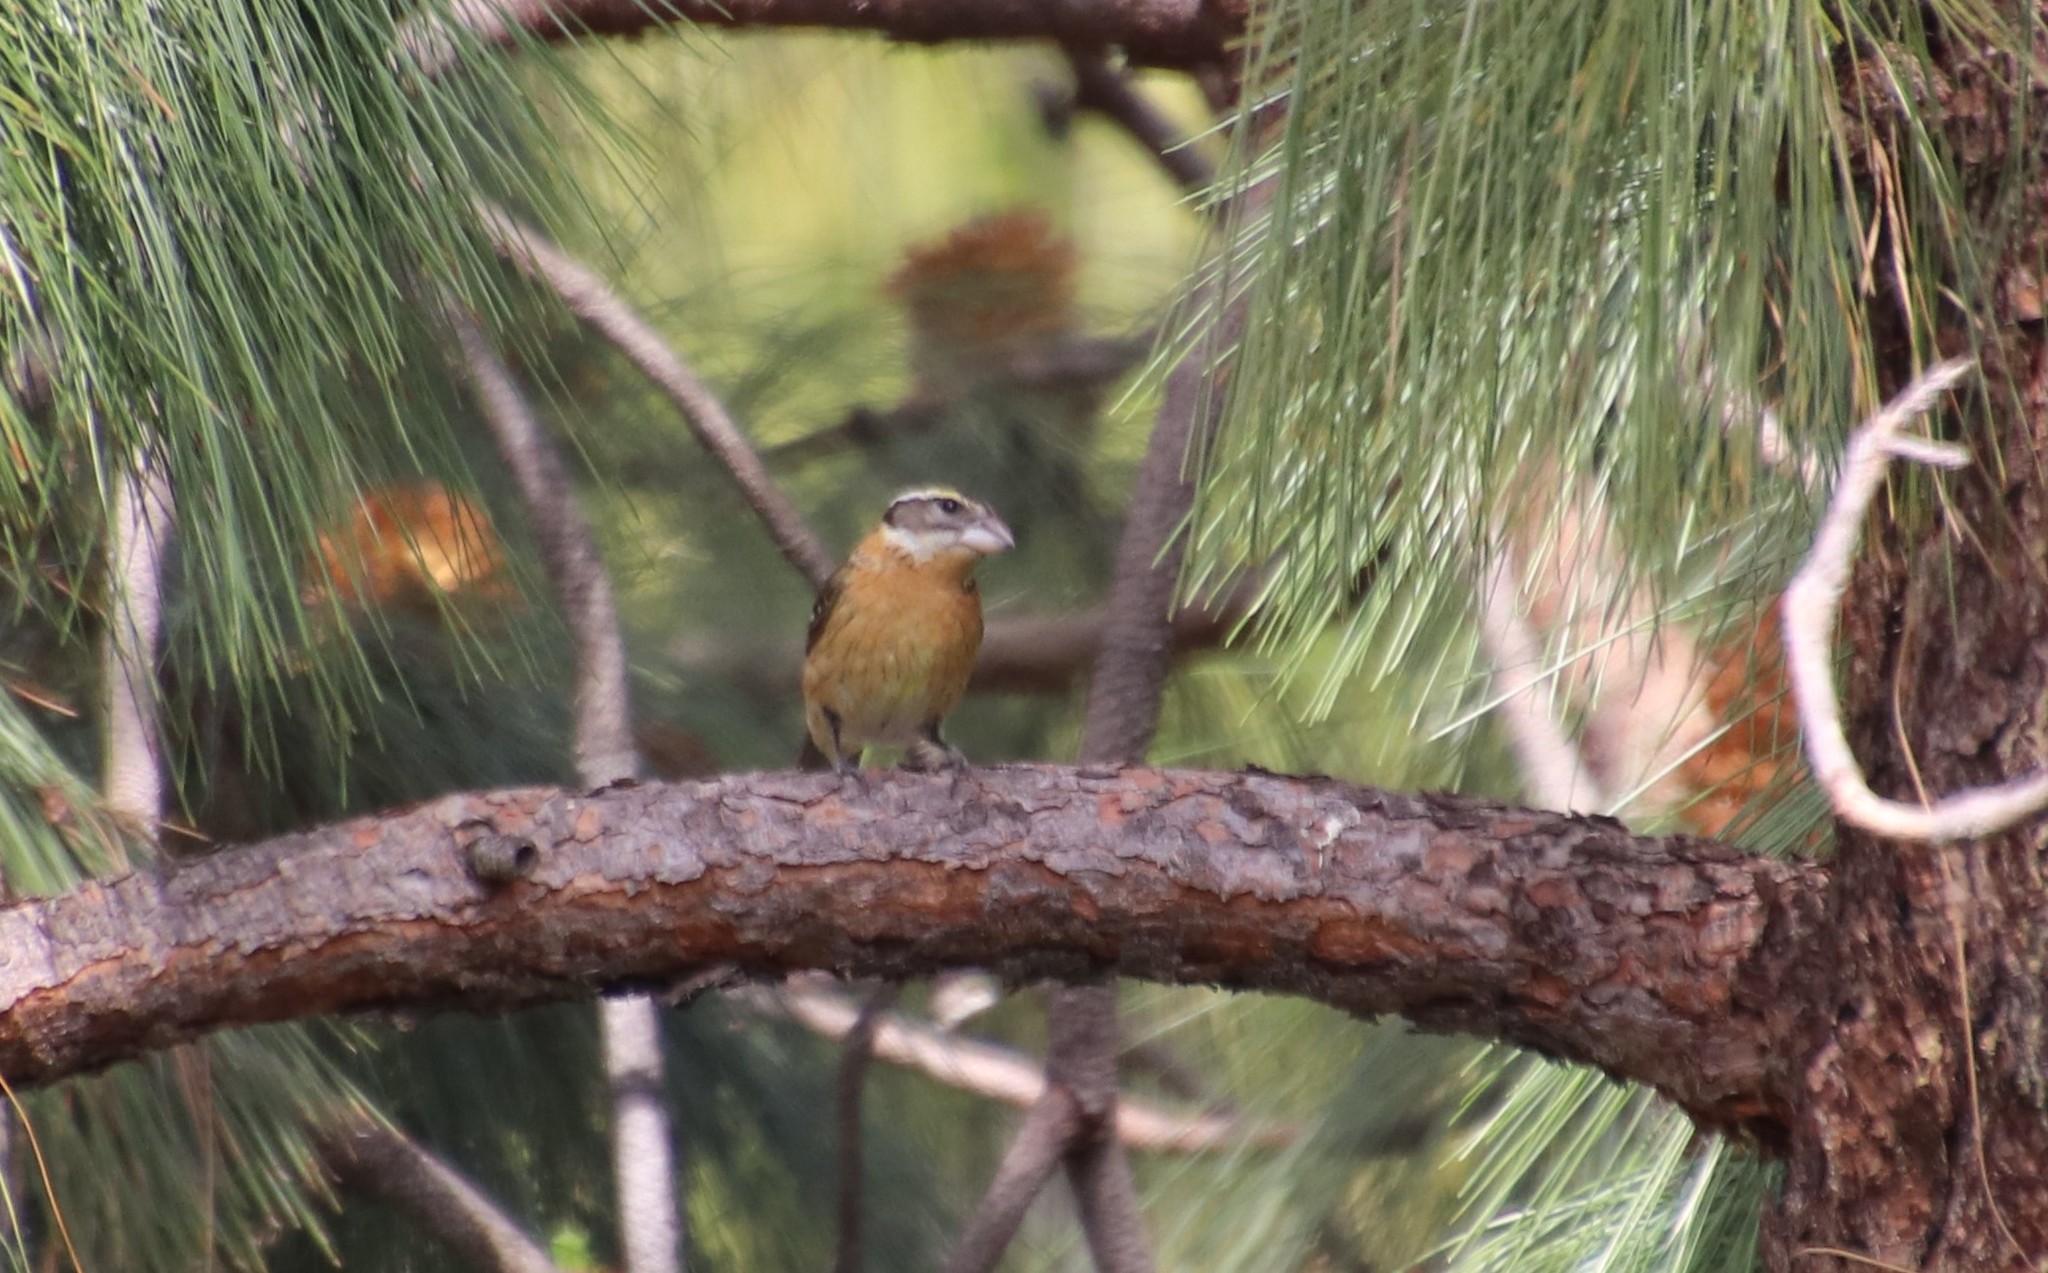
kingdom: Animalia
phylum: Chordata
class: Aves
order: Passeriformes
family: Cardinalidae
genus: Pheucticus
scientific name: Pheucticus melanocephalus
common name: Black-headed grosbeak
